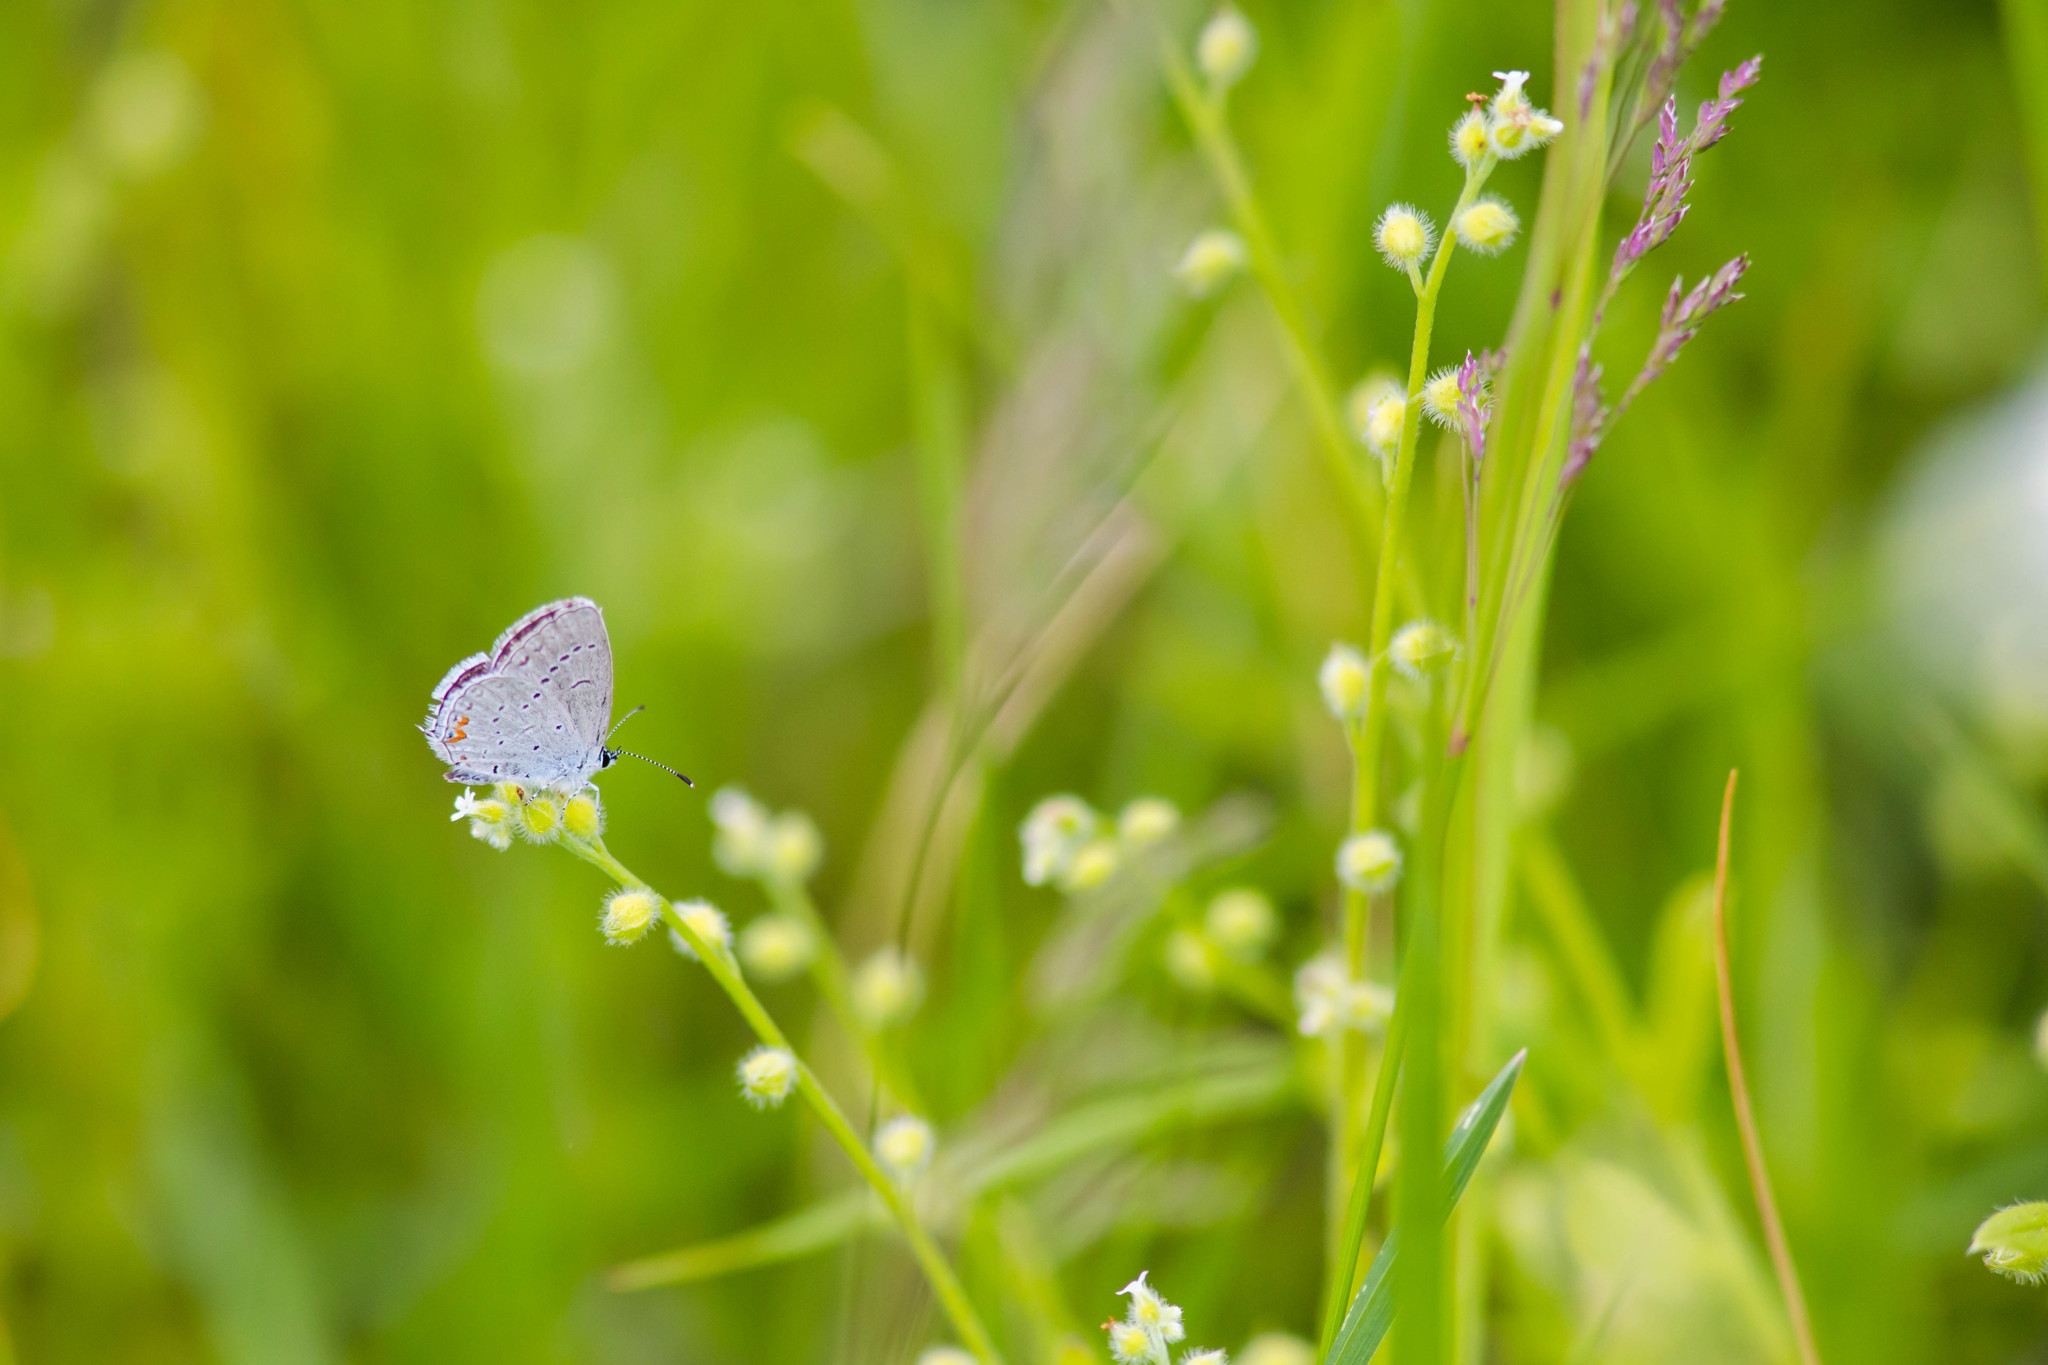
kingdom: Animalia
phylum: Arthropoda
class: Insecta
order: Lepidoptera
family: Lycaenidae
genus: Elkalyce
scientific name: Elkalyce comyntas
